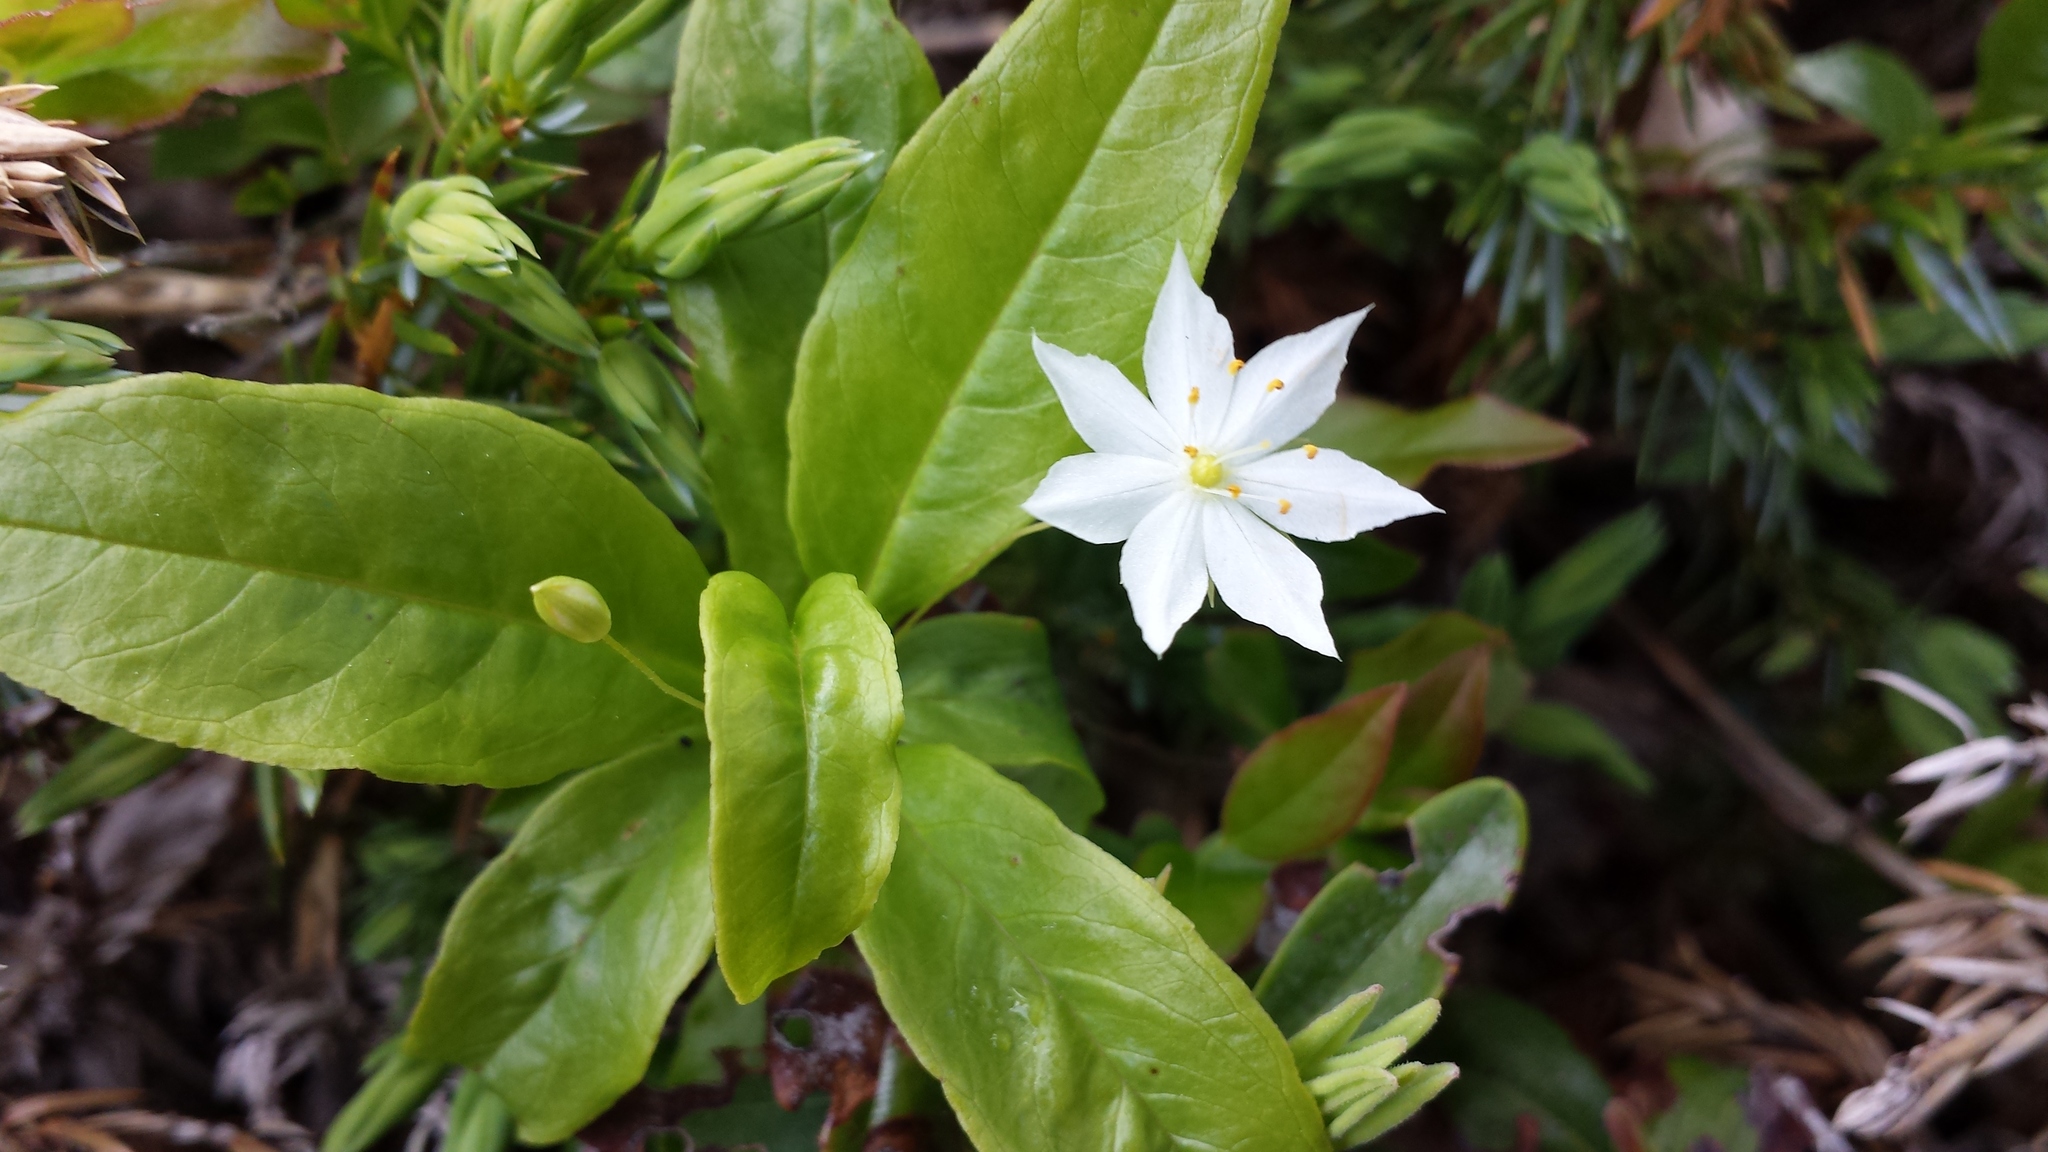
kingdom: Plantae
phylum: Tracheophyta
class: Magnoliopsida
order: Ericales
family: Primulaceae
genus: Lysimachia
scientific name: Lysimachia borealis
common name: American starflower
